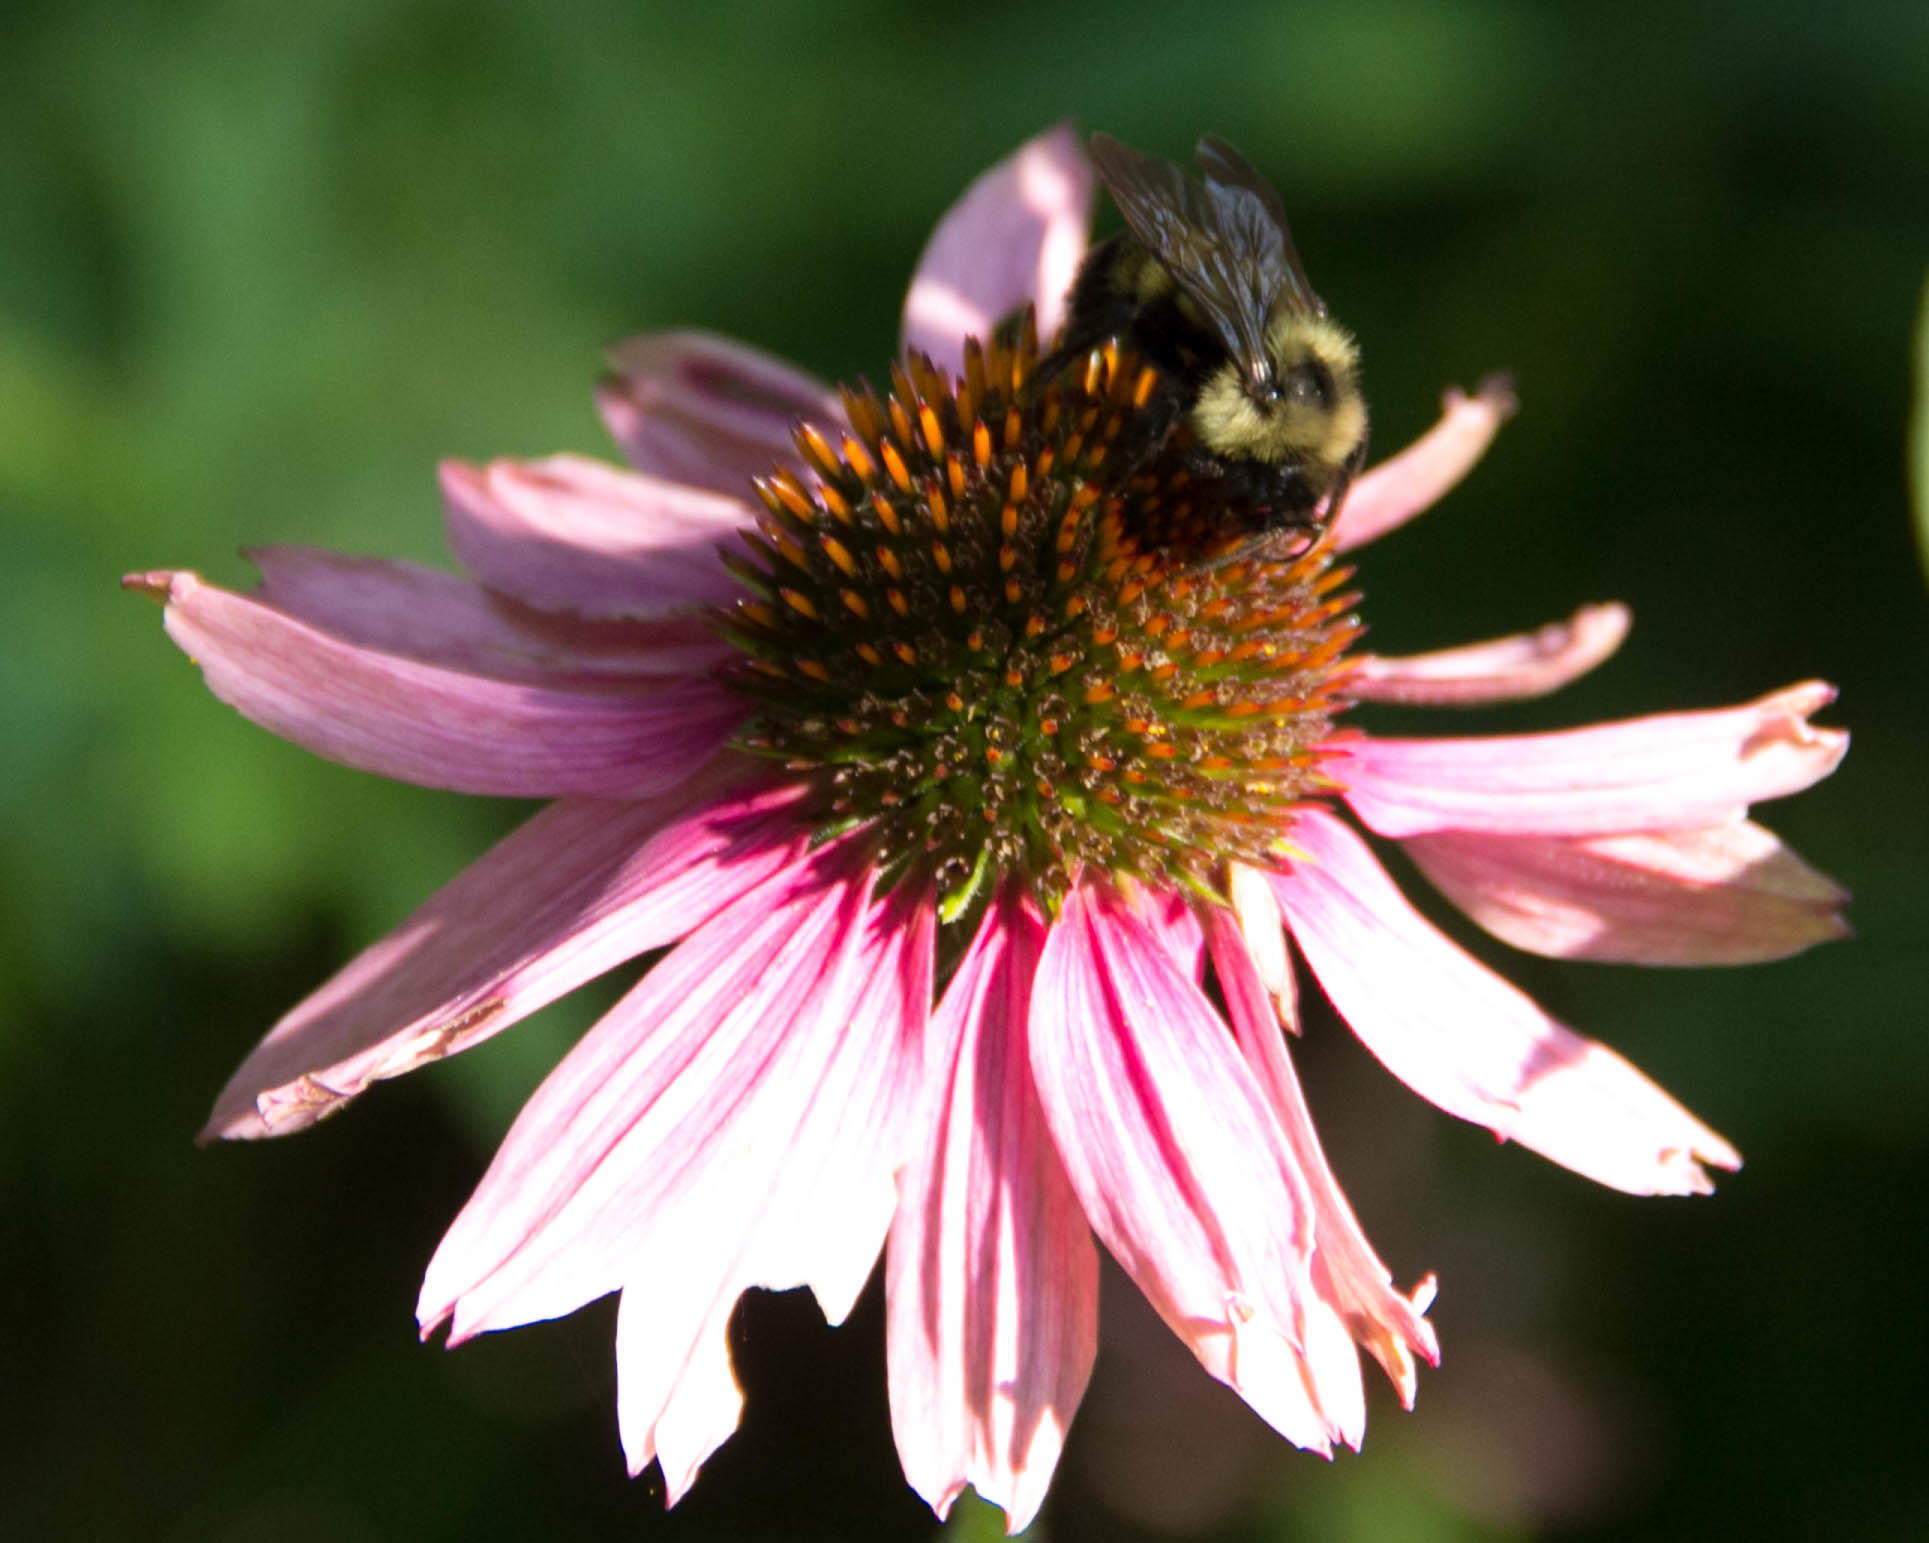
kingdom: Animalia
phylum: Arthropoda
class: Insecta
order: Hymenoptera
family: Apidae
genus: Bombus
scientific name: Bombus citrinus
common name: Lemon cuckoo bumble bee
